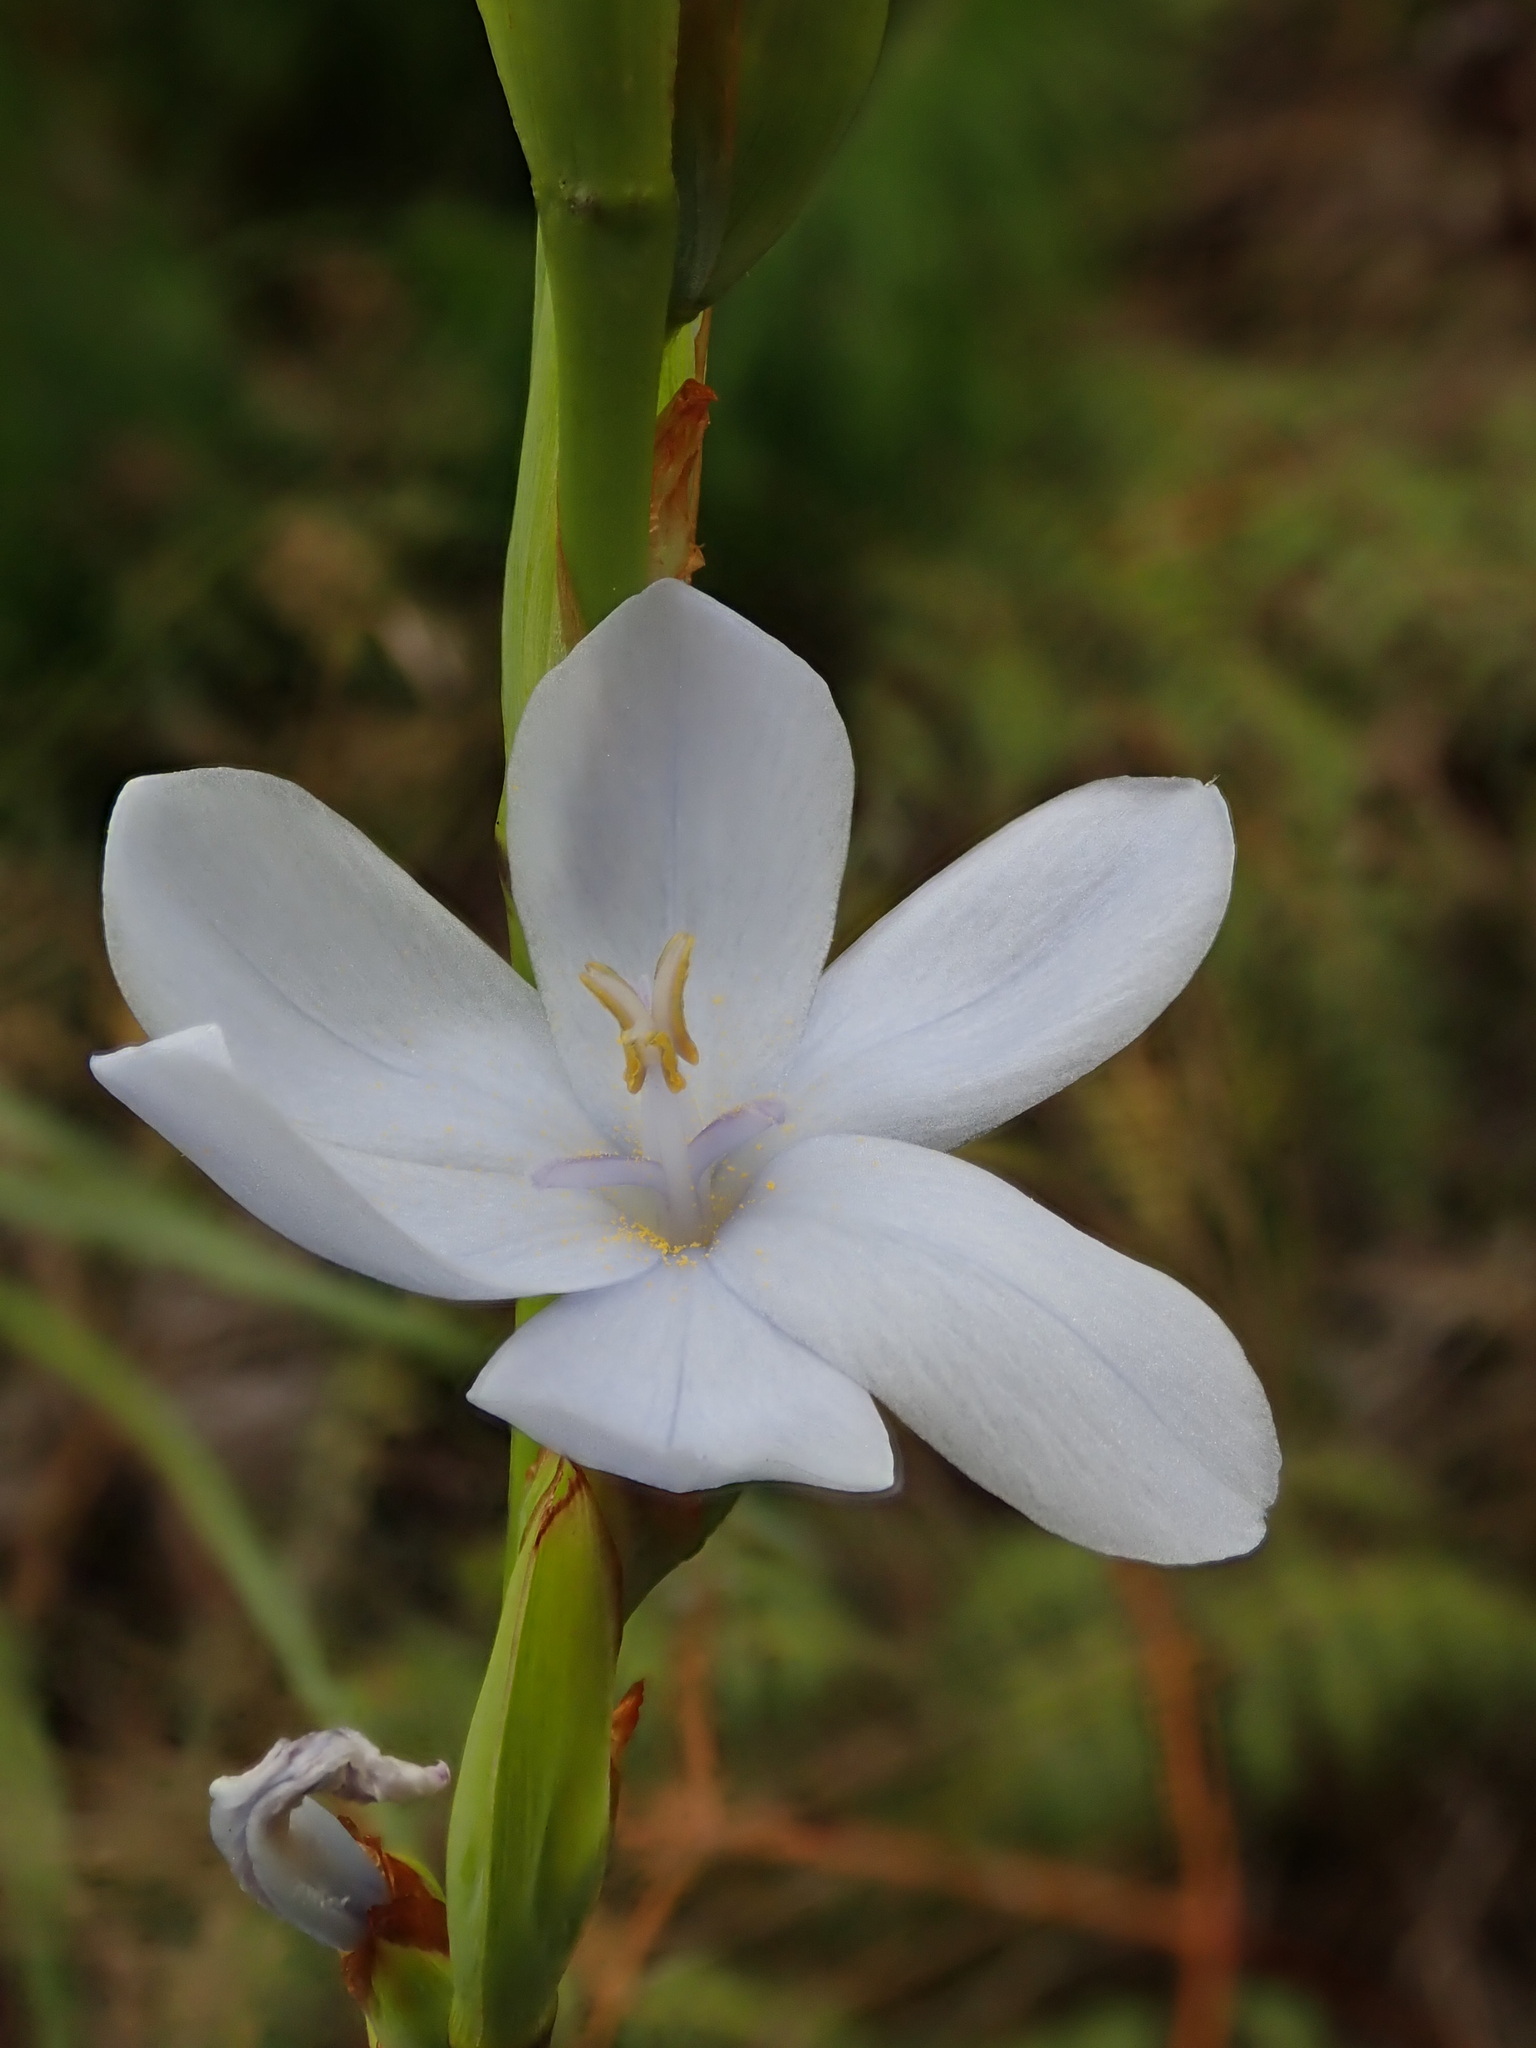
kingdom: Plantae
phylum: Tracheophyta
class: Liliopsida
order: Asparagales
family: Iridaceae
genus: Orthrosanthus
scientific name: Orthrosanthus chimboracensis
